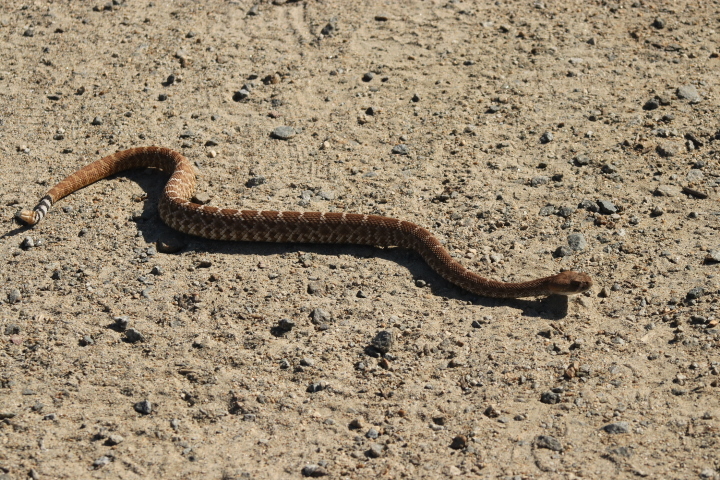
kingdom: Animalia
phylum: Chordata
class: Squamata
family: Viperidae
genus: Crotalus
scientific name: Crotalus ruber
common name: Red diamond rattlesnake
